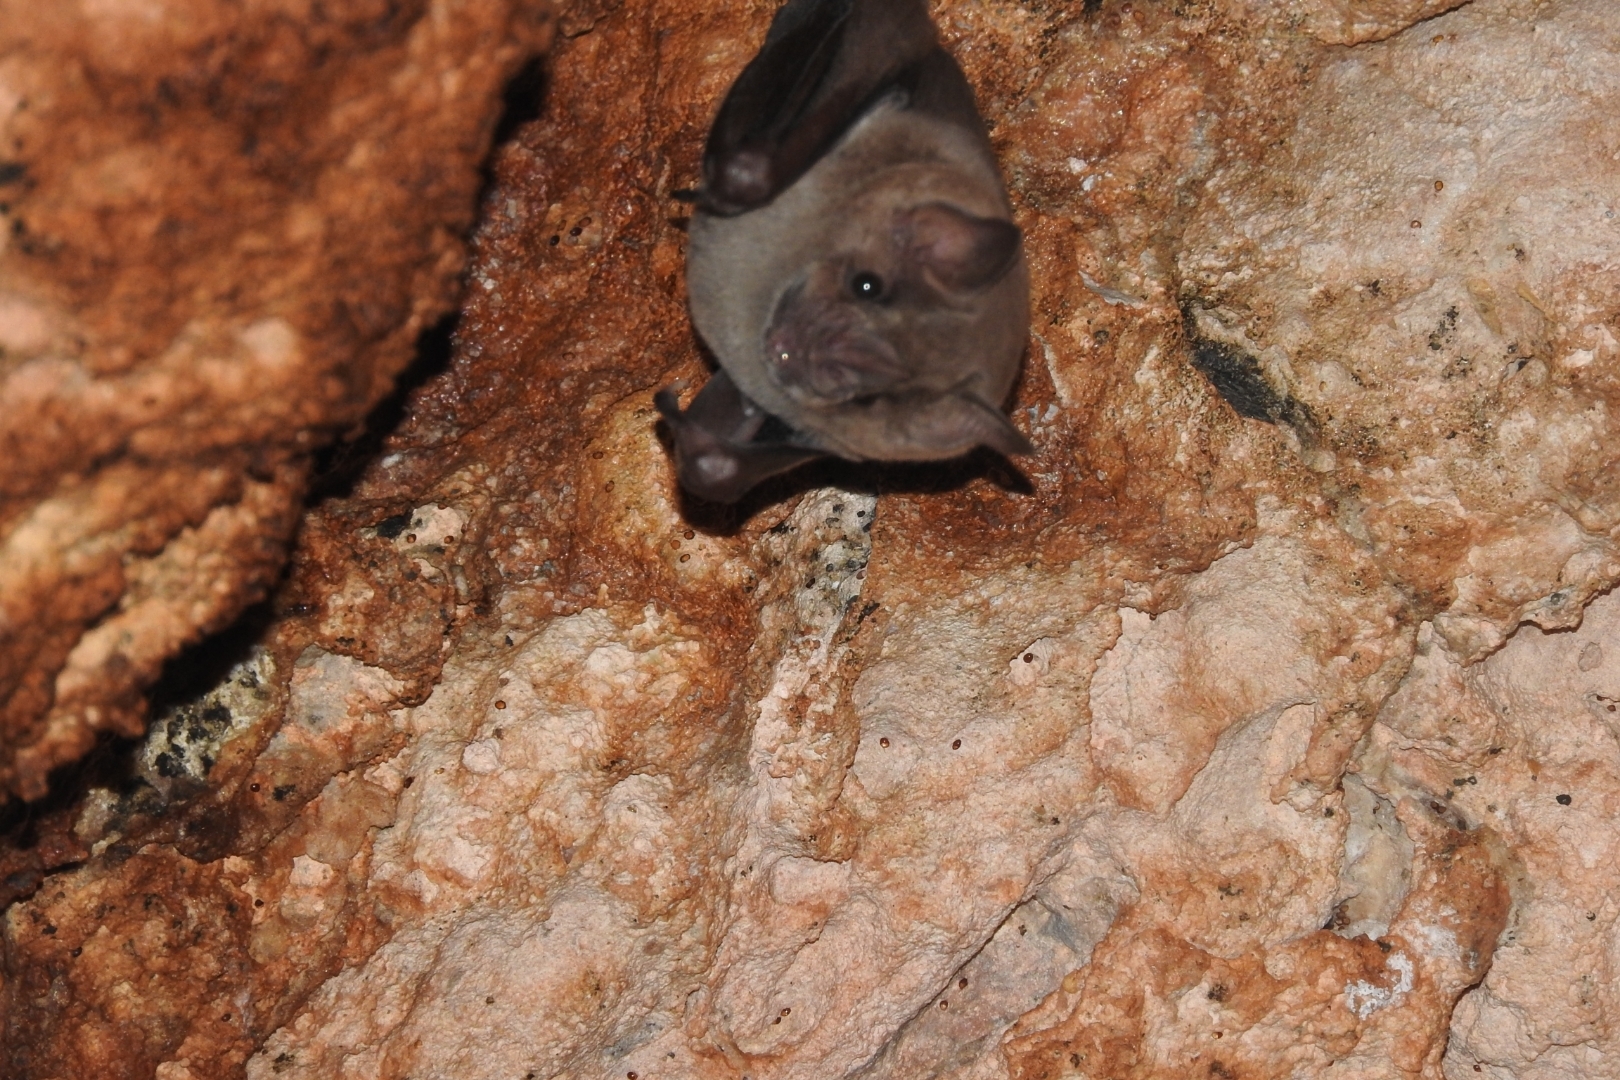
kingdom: Animalia
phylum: Chordata
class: Mammalia
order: Chiroptera
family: Phyllostomidae
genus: Artibeus
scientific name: Artibeus jamaicensis
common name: Jamaican fruit-eating bat
